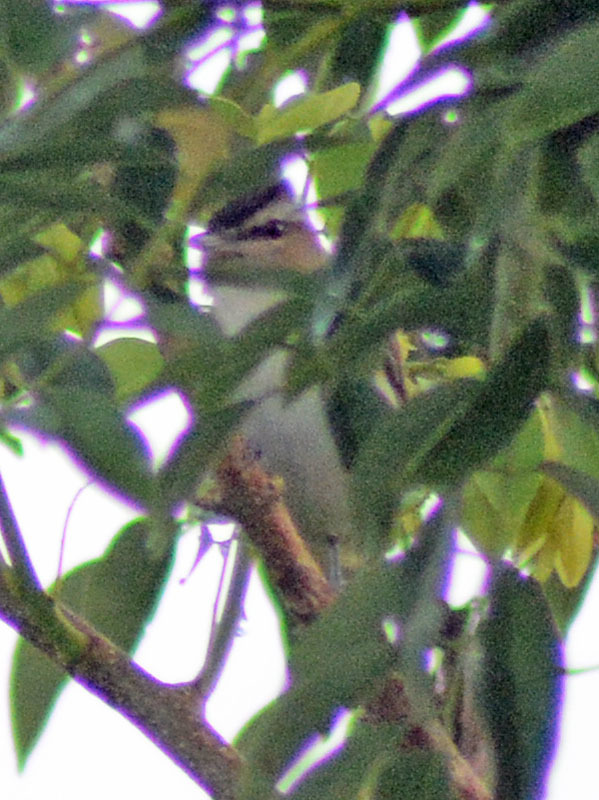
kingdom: Animalia
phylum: Chordata
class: Aves
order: Passeriformes
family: Vireonidae
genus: Vireo
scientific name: Vireo olivaceus
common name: Red-eyed vireo
